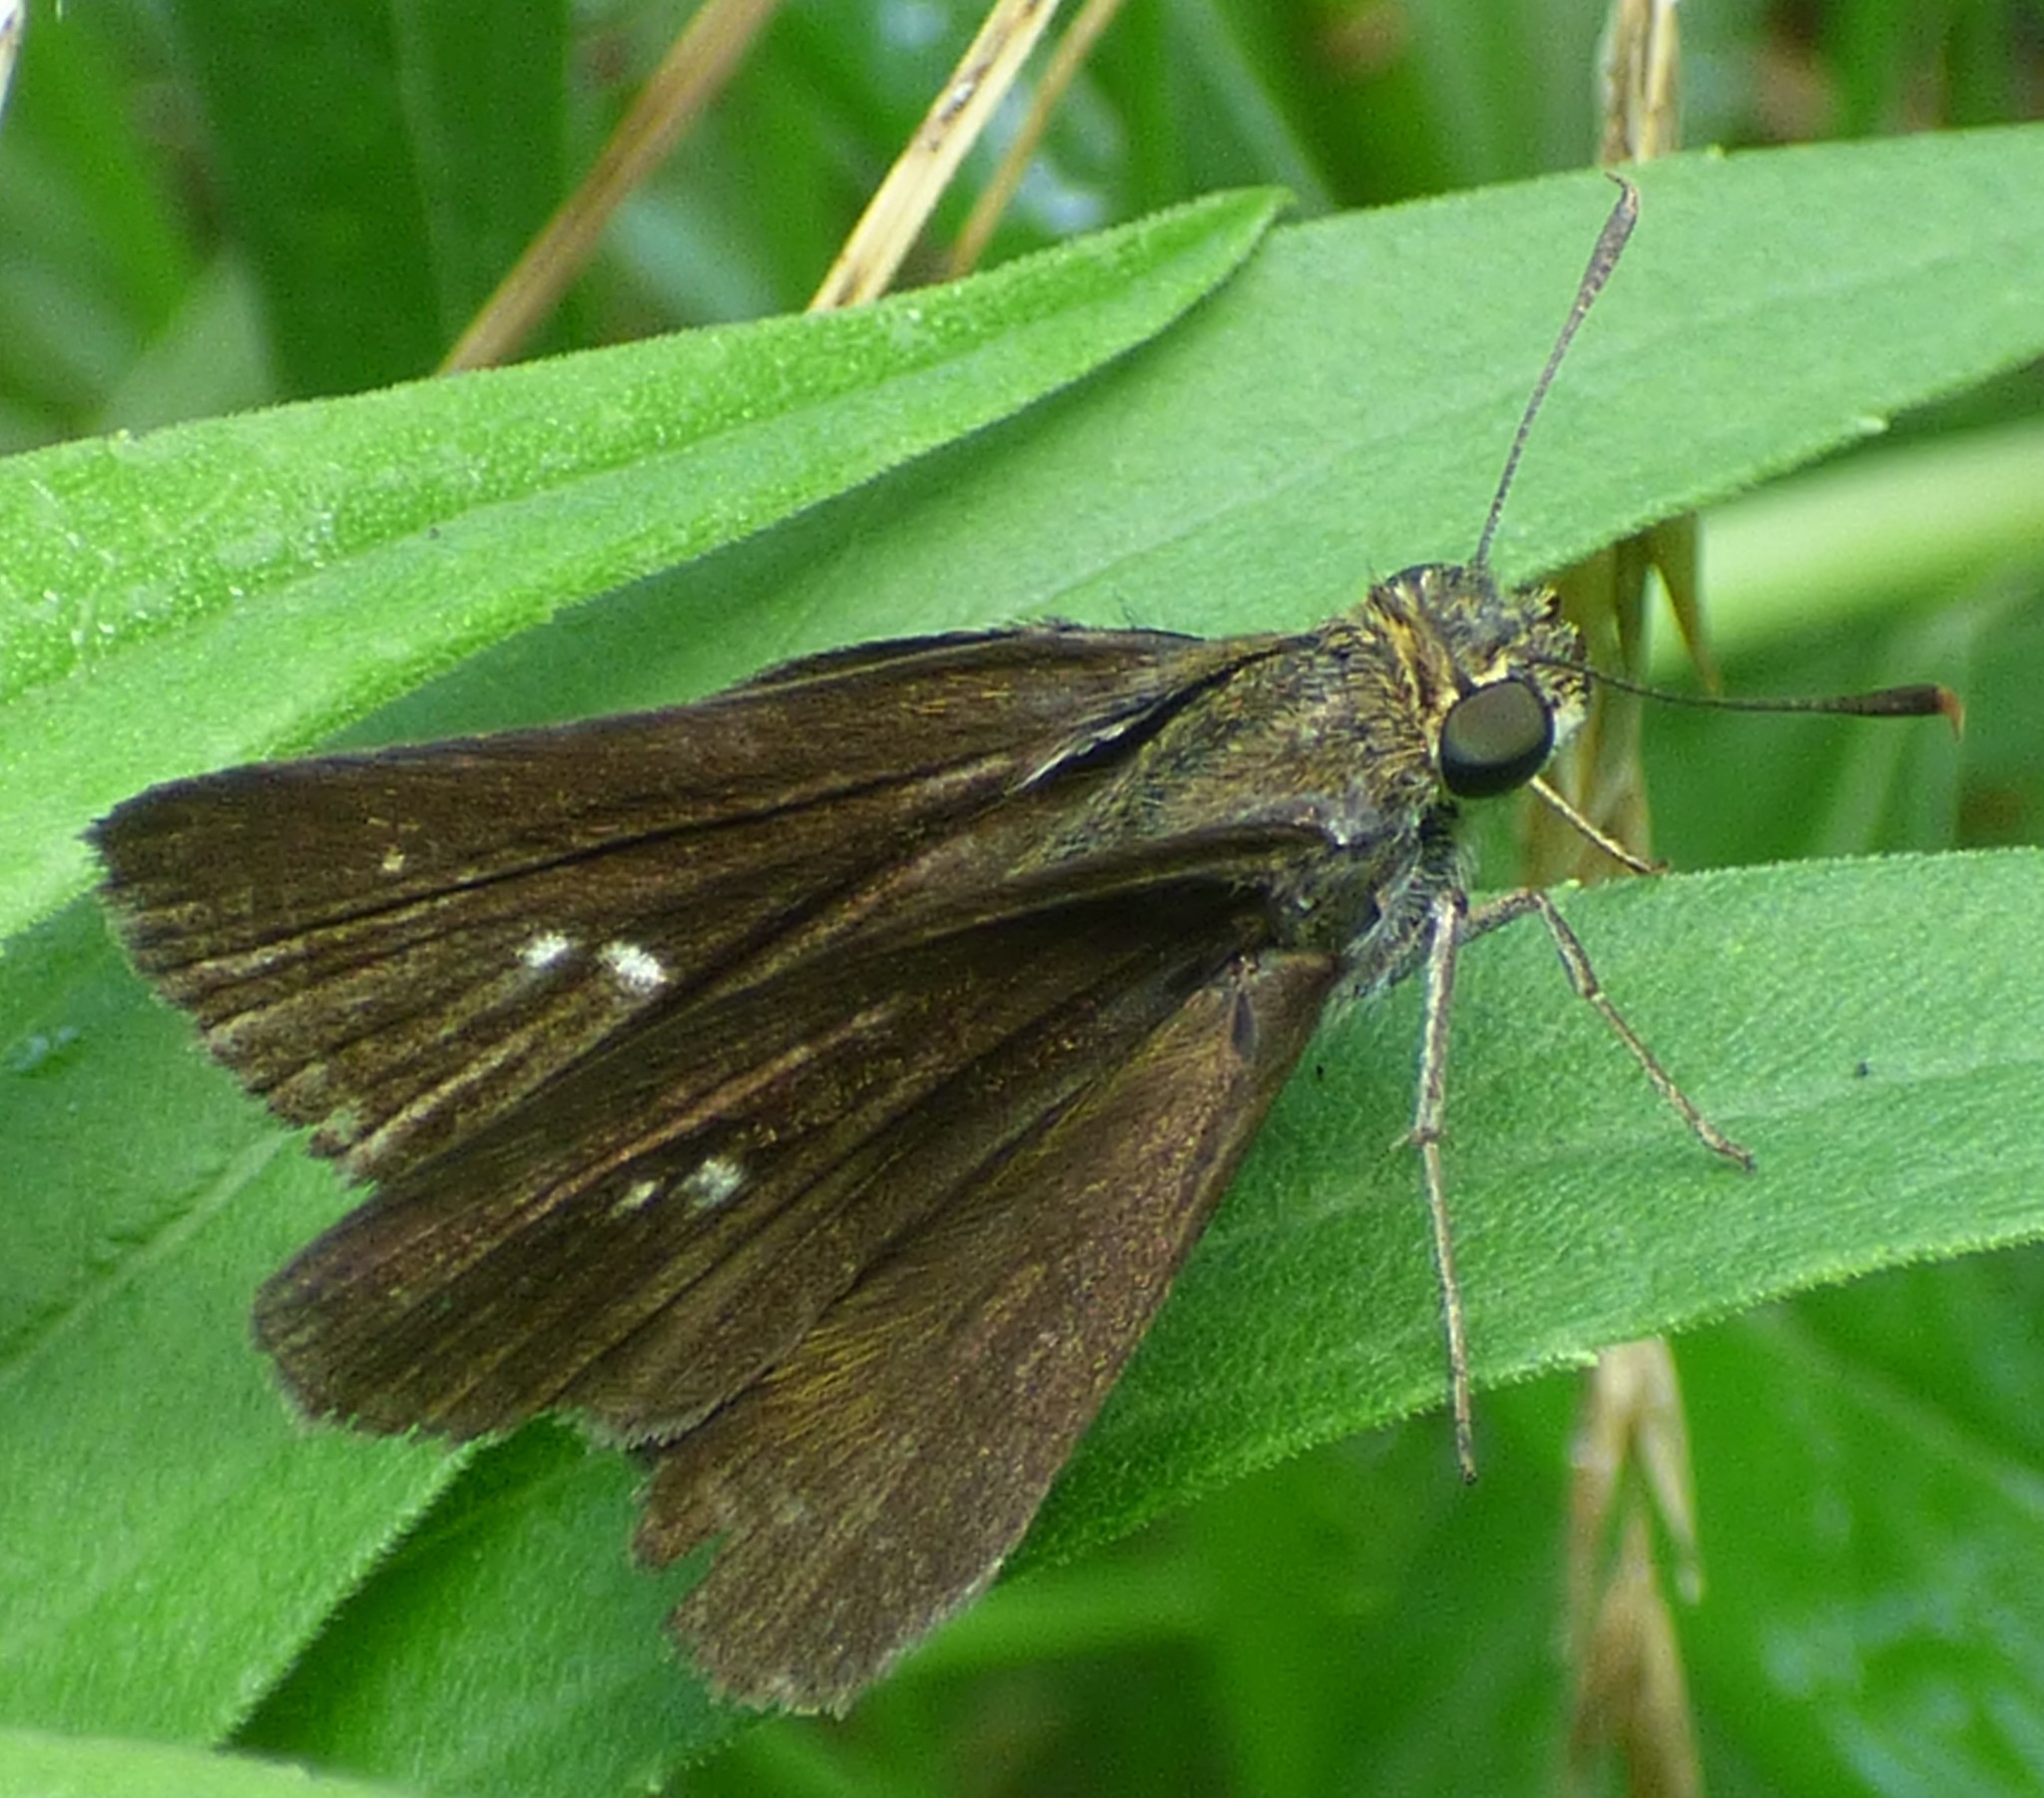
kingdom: Animalia
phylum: Arthropoda
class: Insecta
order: Lepidoptera
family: Hesperiidae
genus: Euphyes
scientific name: Euphyes vestris
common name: Dun skipper
